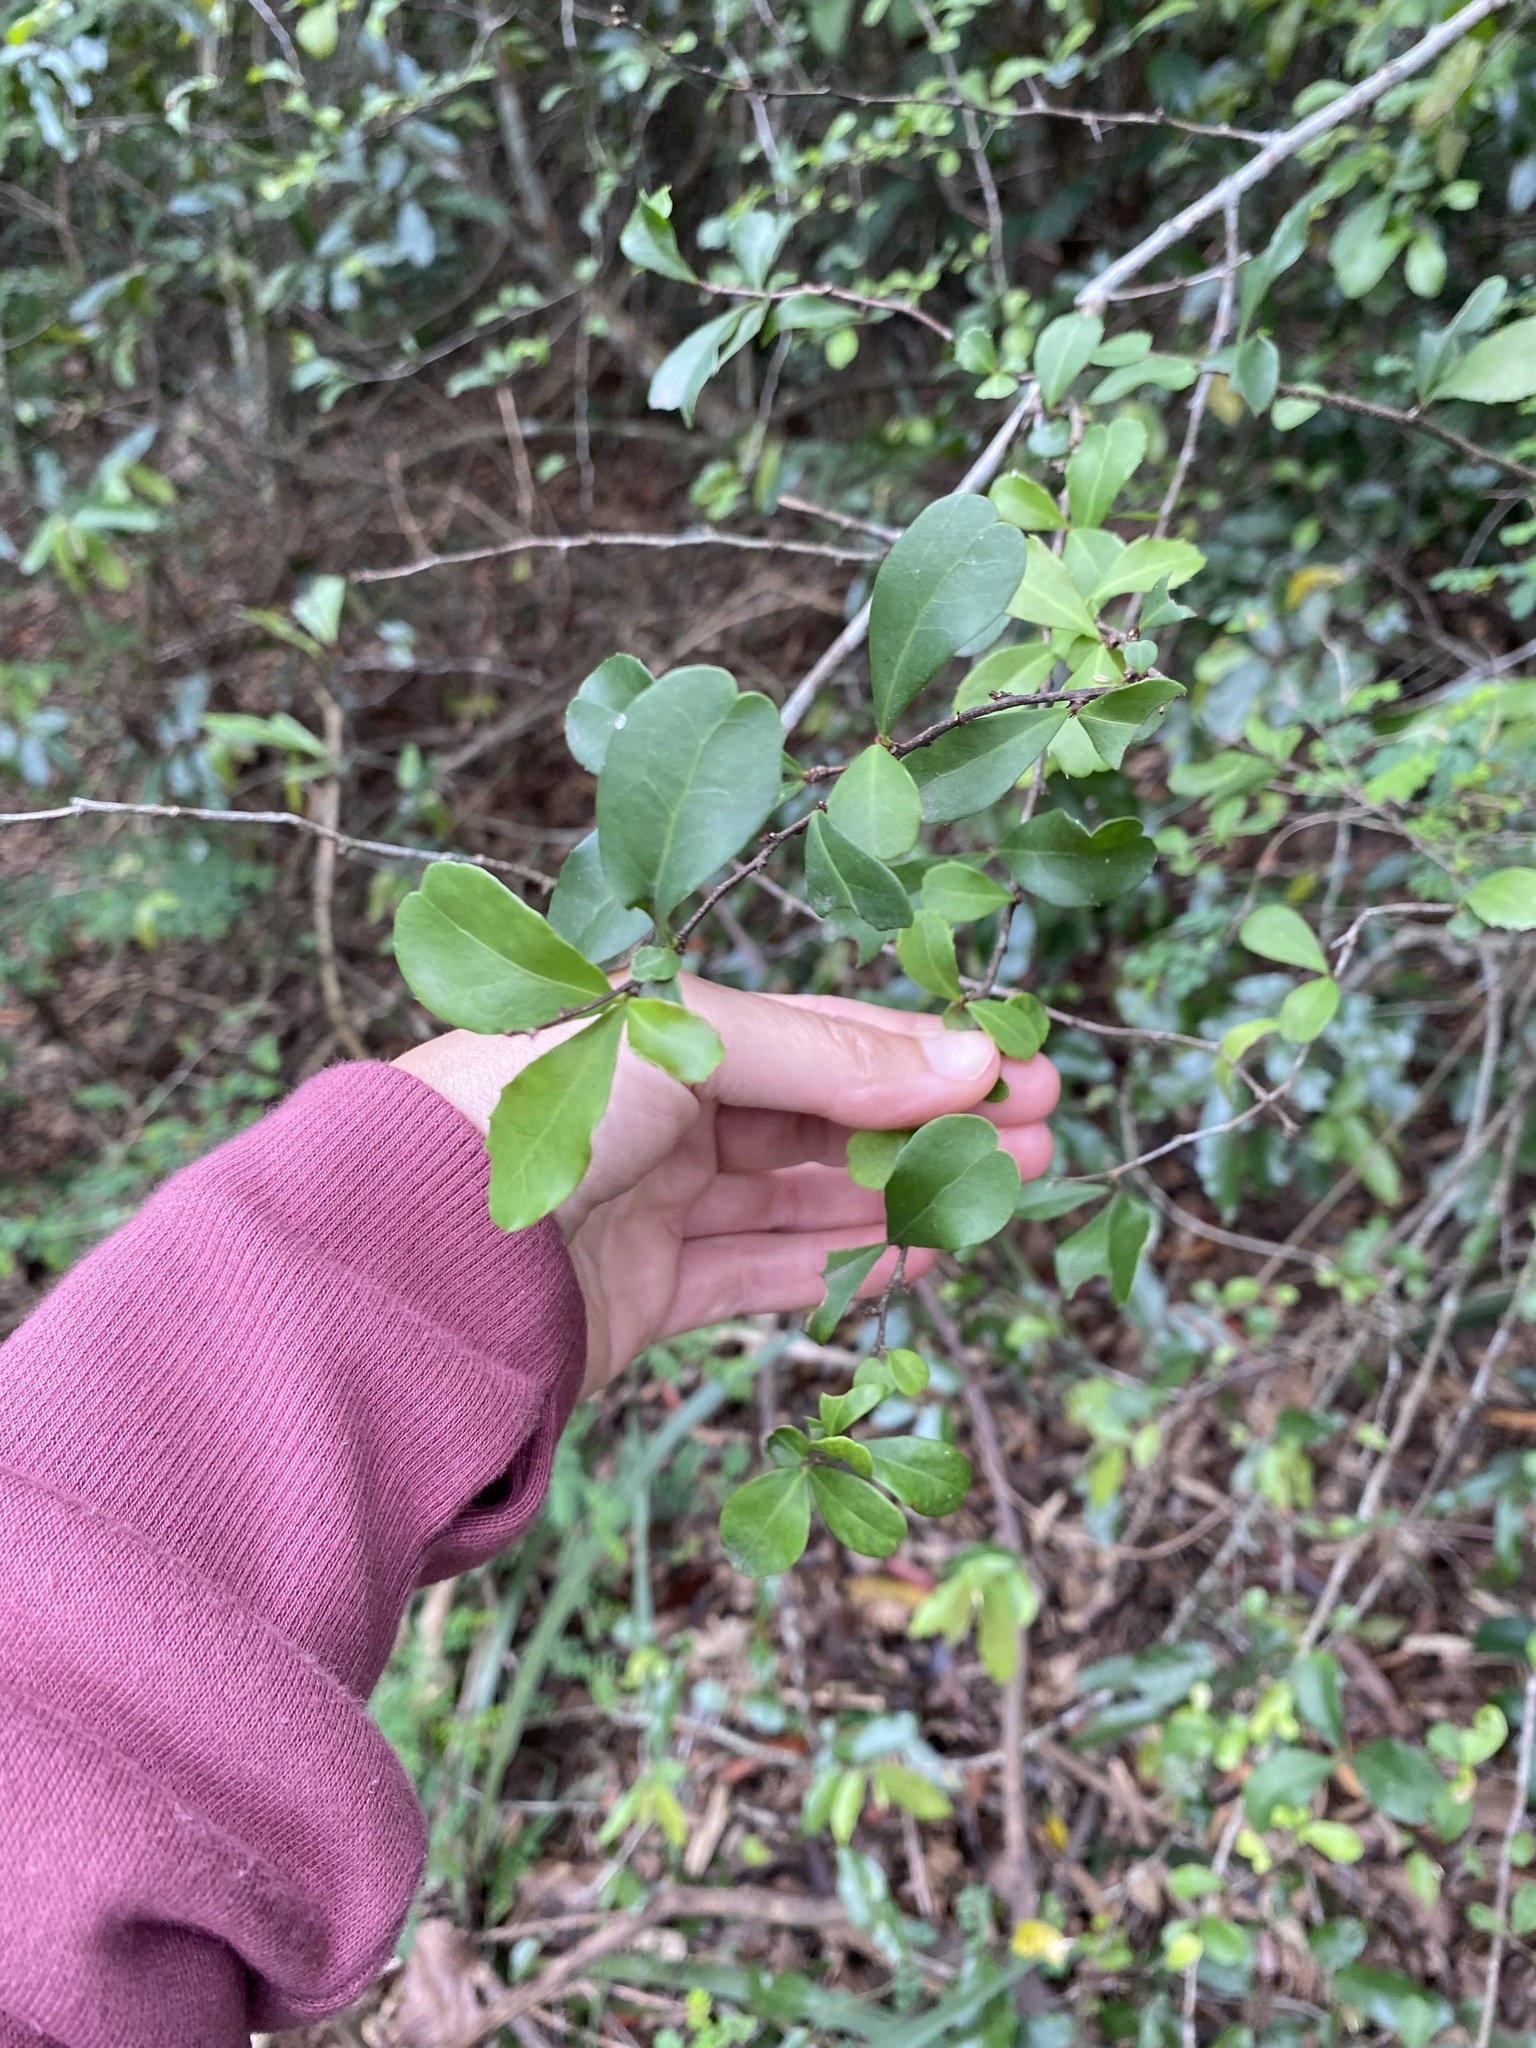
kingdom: Plantae
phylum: Tracheophyta
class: Magnoliopsida
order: Celastrales
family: Celastraceae
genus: Putterlickia
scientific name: Putterlickia verrucosa
